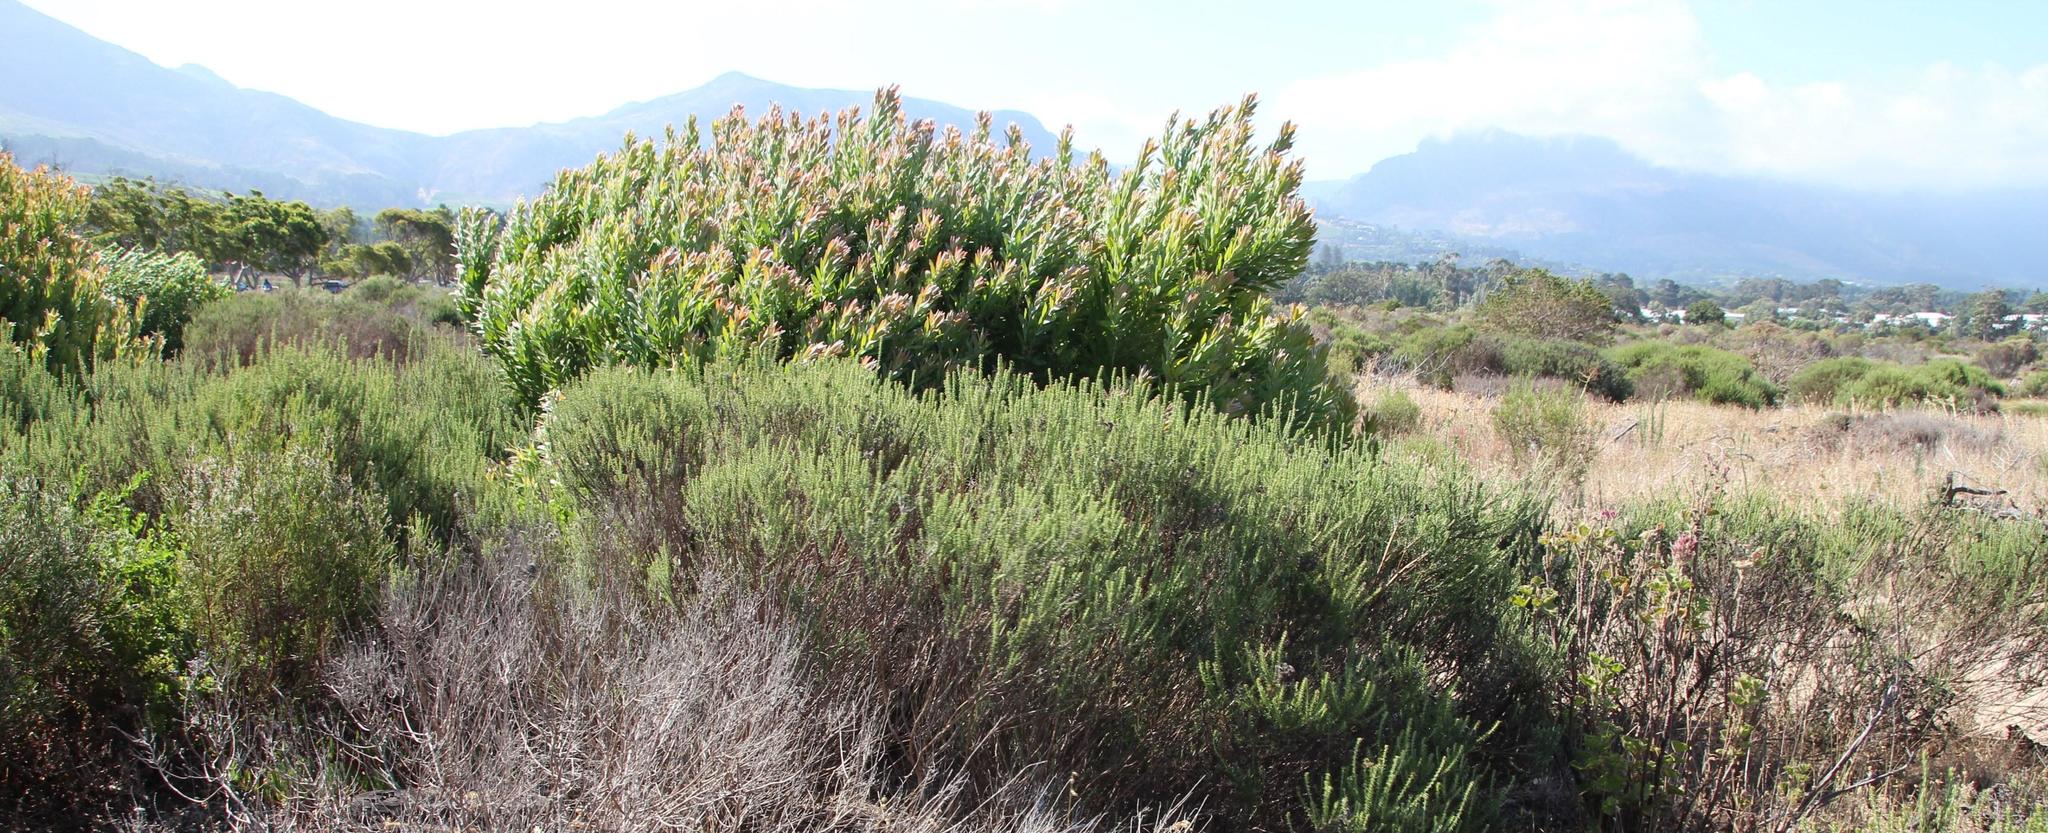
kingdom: Plantae
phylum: Tracheophyta
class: Magnoliopsida
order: Proteales
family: Proteaceae
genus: Leucadendron
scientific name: Leucadendron laureolum
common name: Golden sunshinebush
